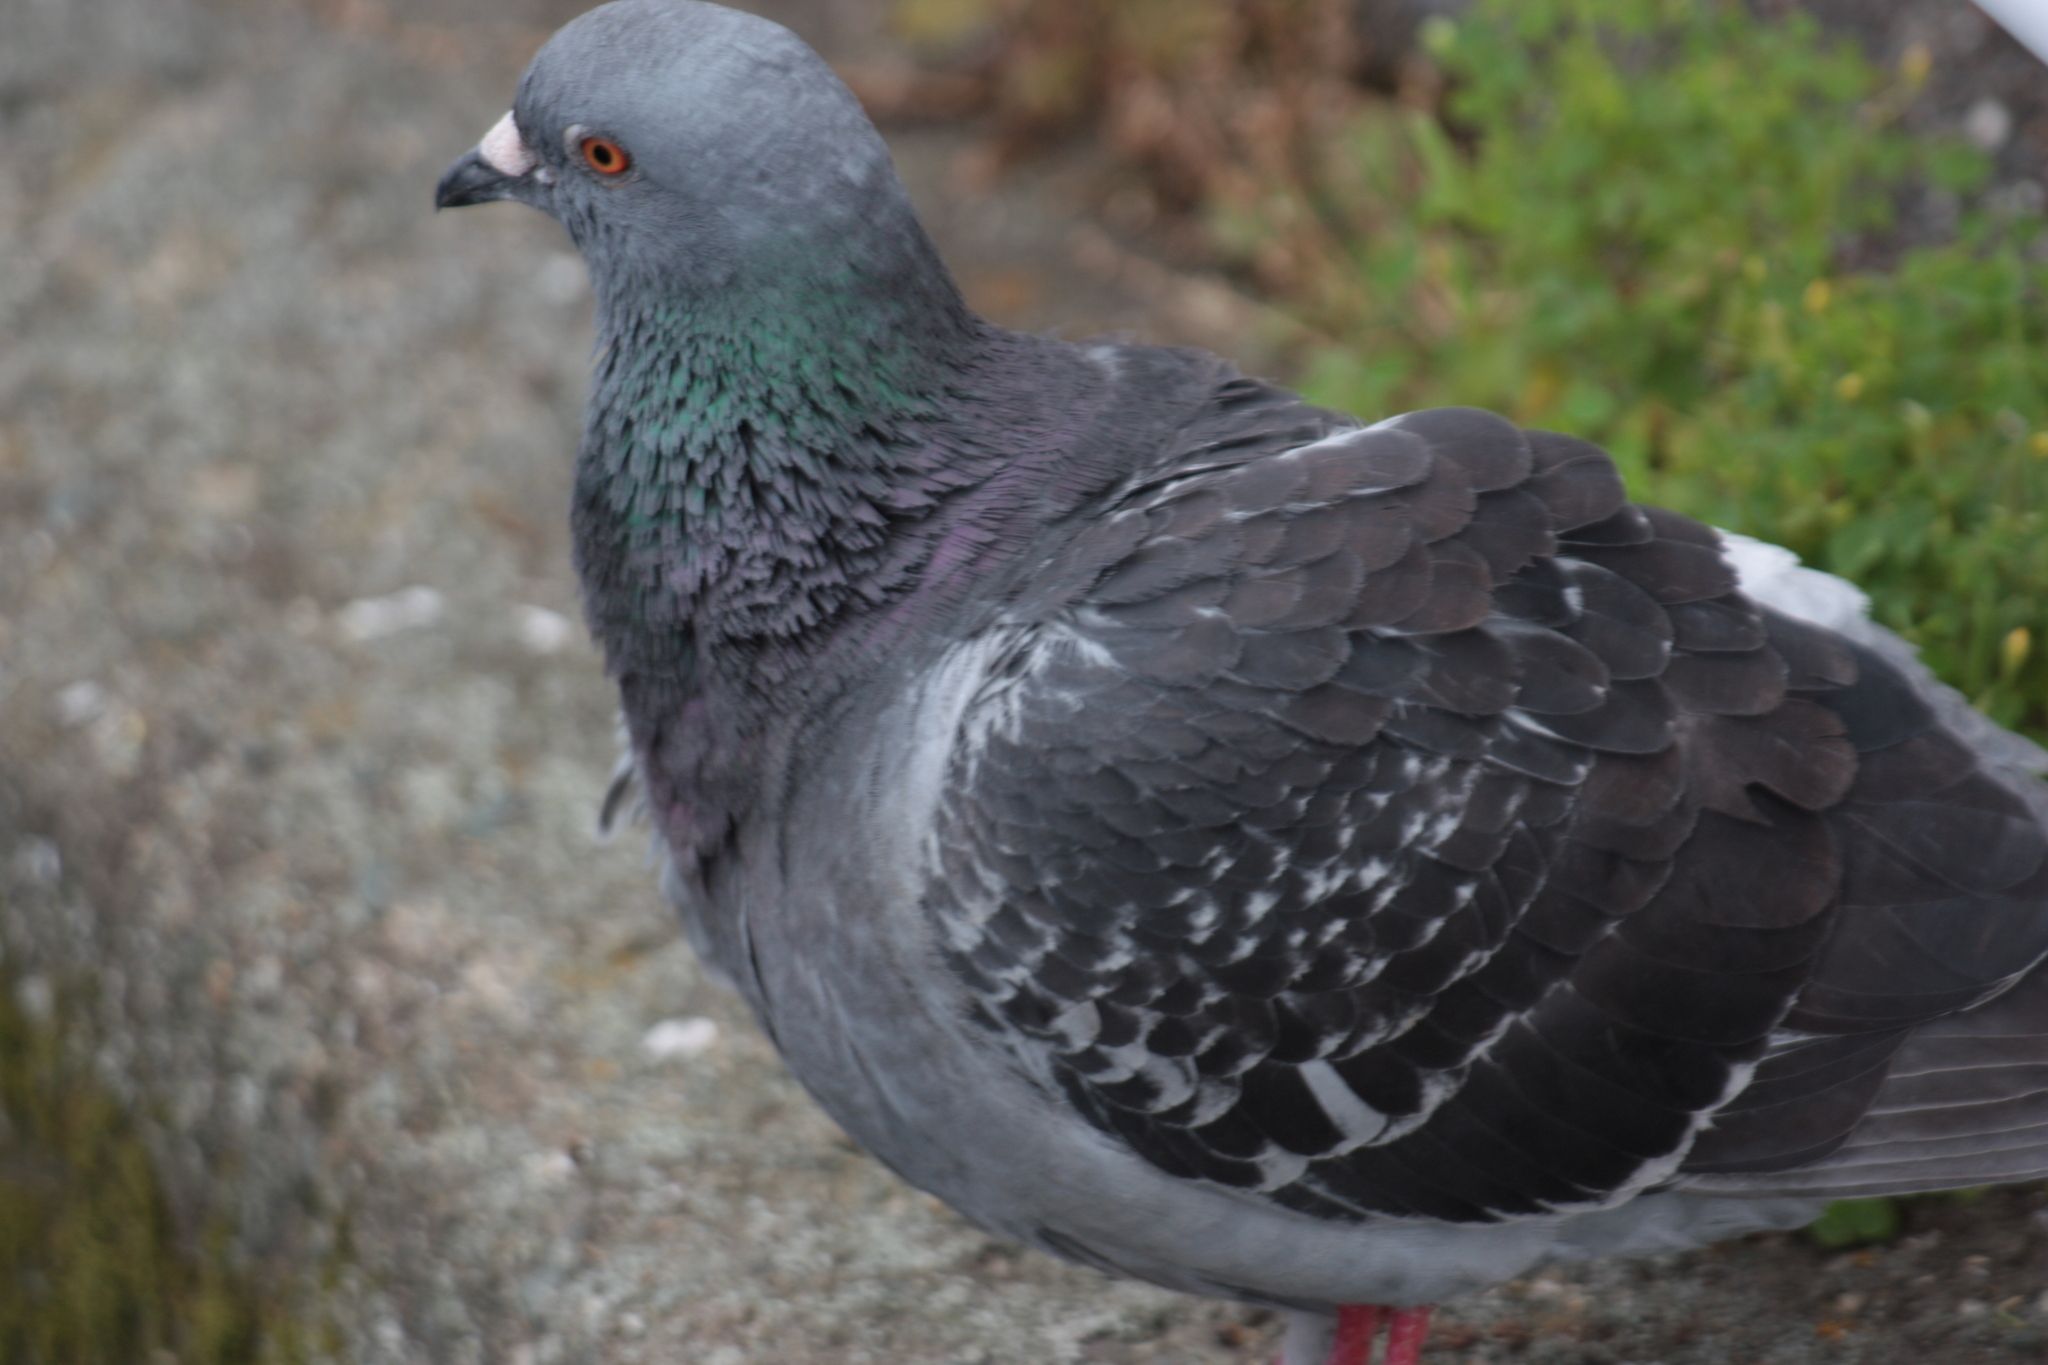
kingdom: Animalia
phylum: Chordata
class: Aves
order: Columbiformes
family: Columbidae
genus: Columba
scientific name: Columba livia
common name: Rock pigeon
